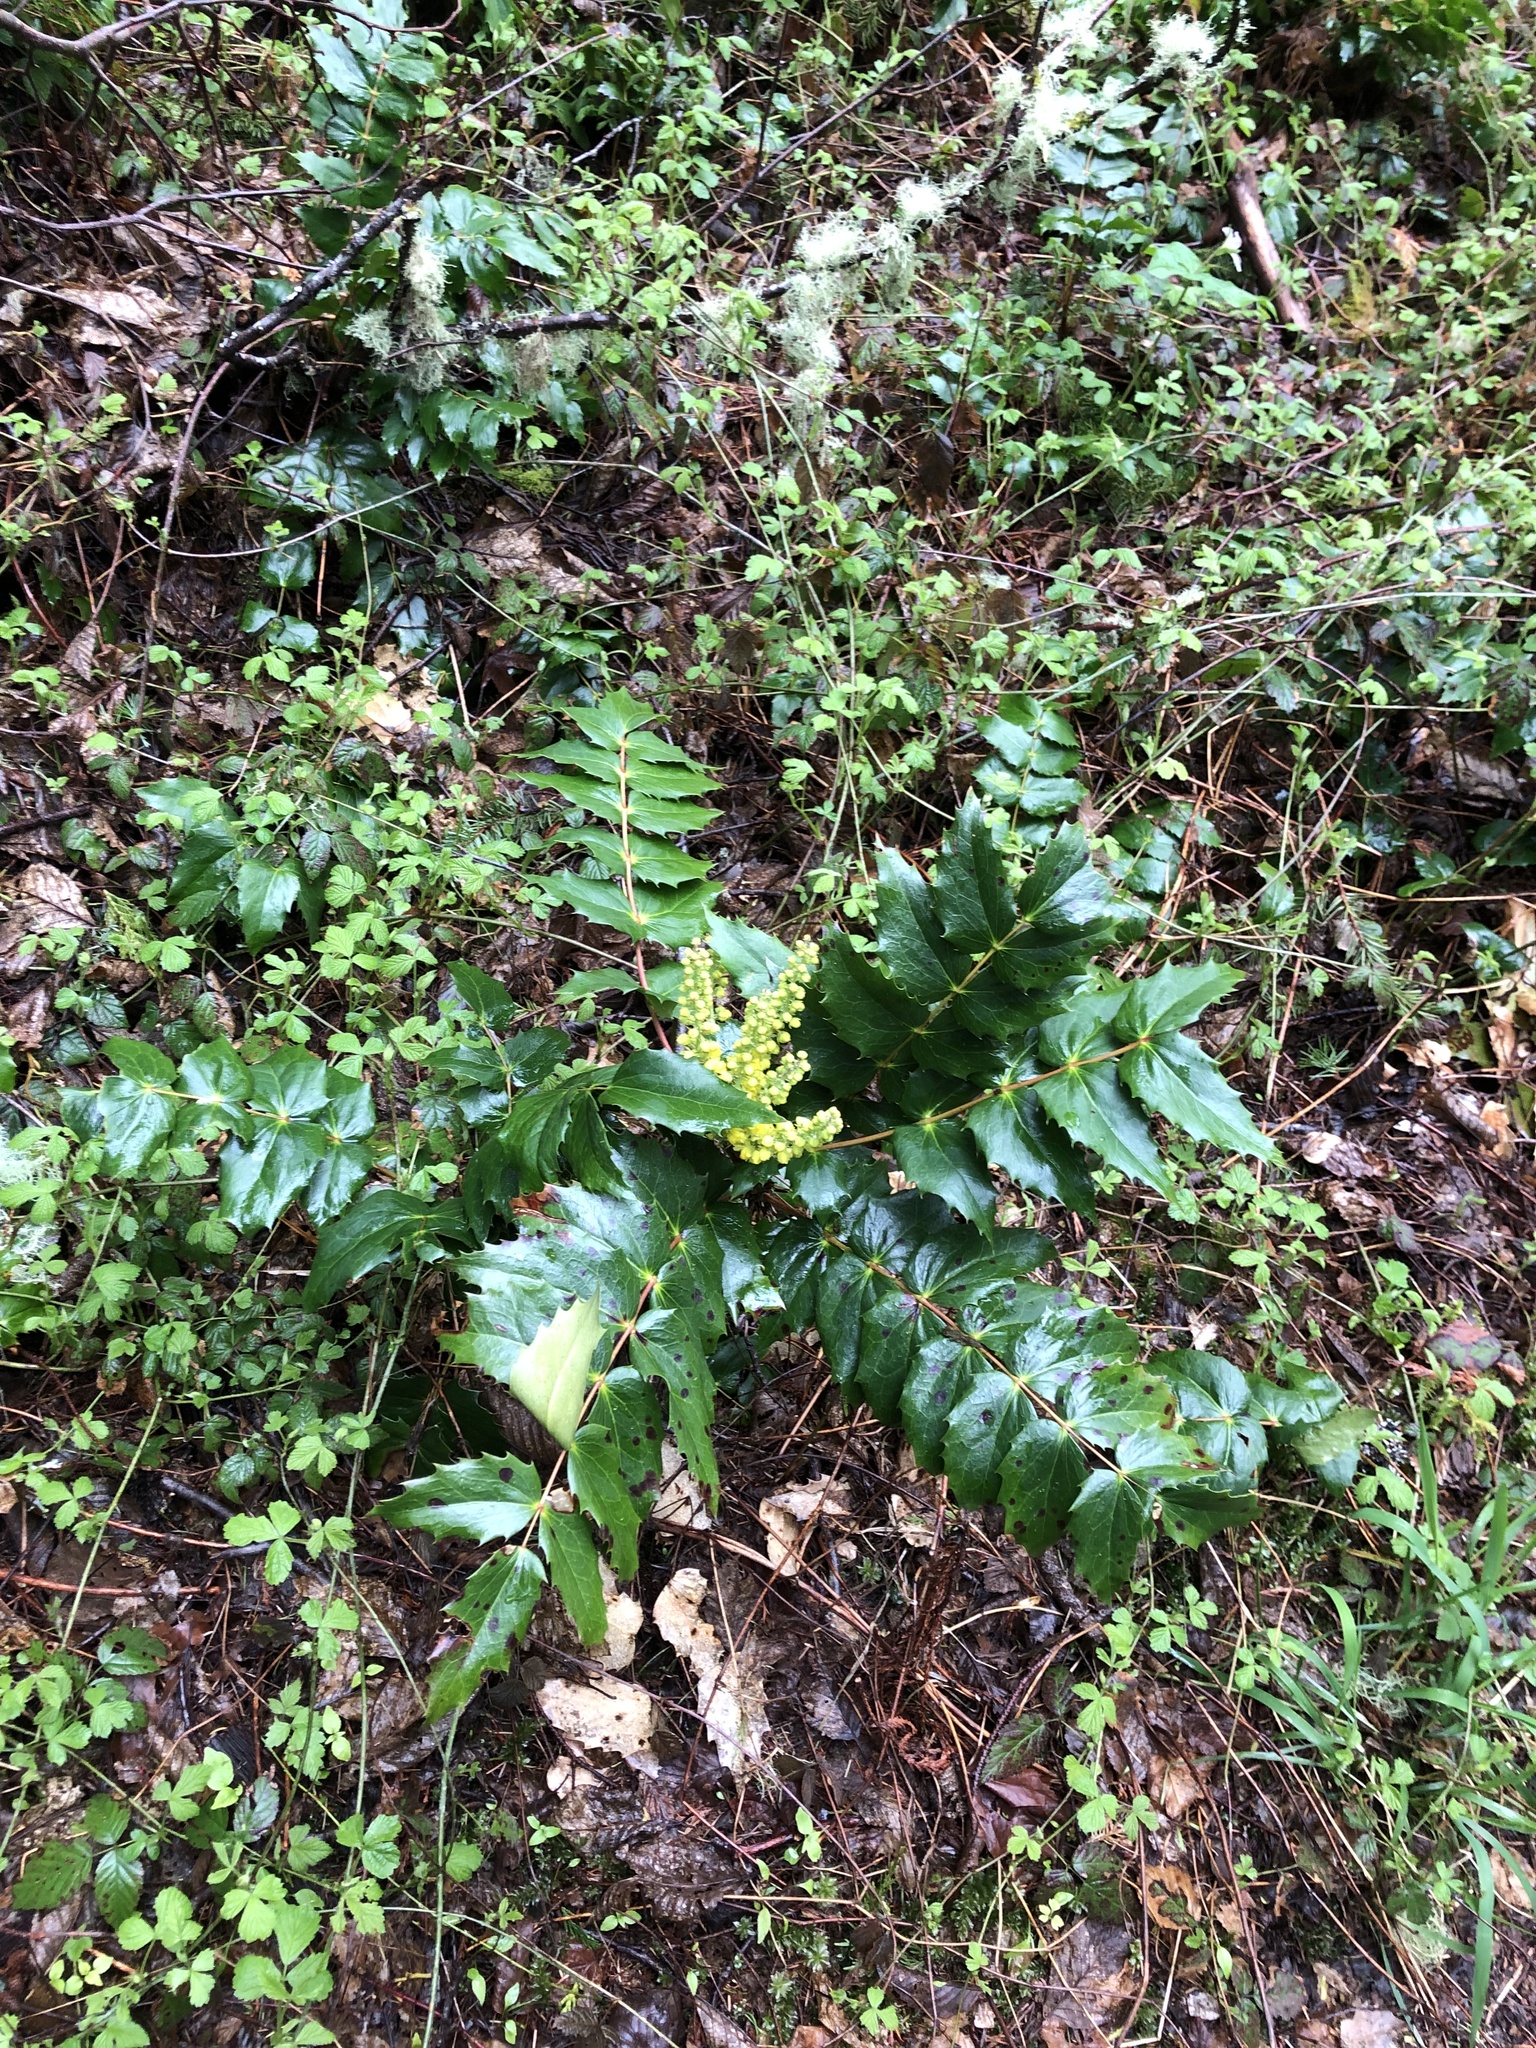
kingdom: Plantae
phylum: Tracheophyta
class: Magnoliopsida
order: Ranunculales
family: Berberidaceae
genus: Mahonia
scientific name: Mahonia nervosa
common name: Cascade oregon-grape
